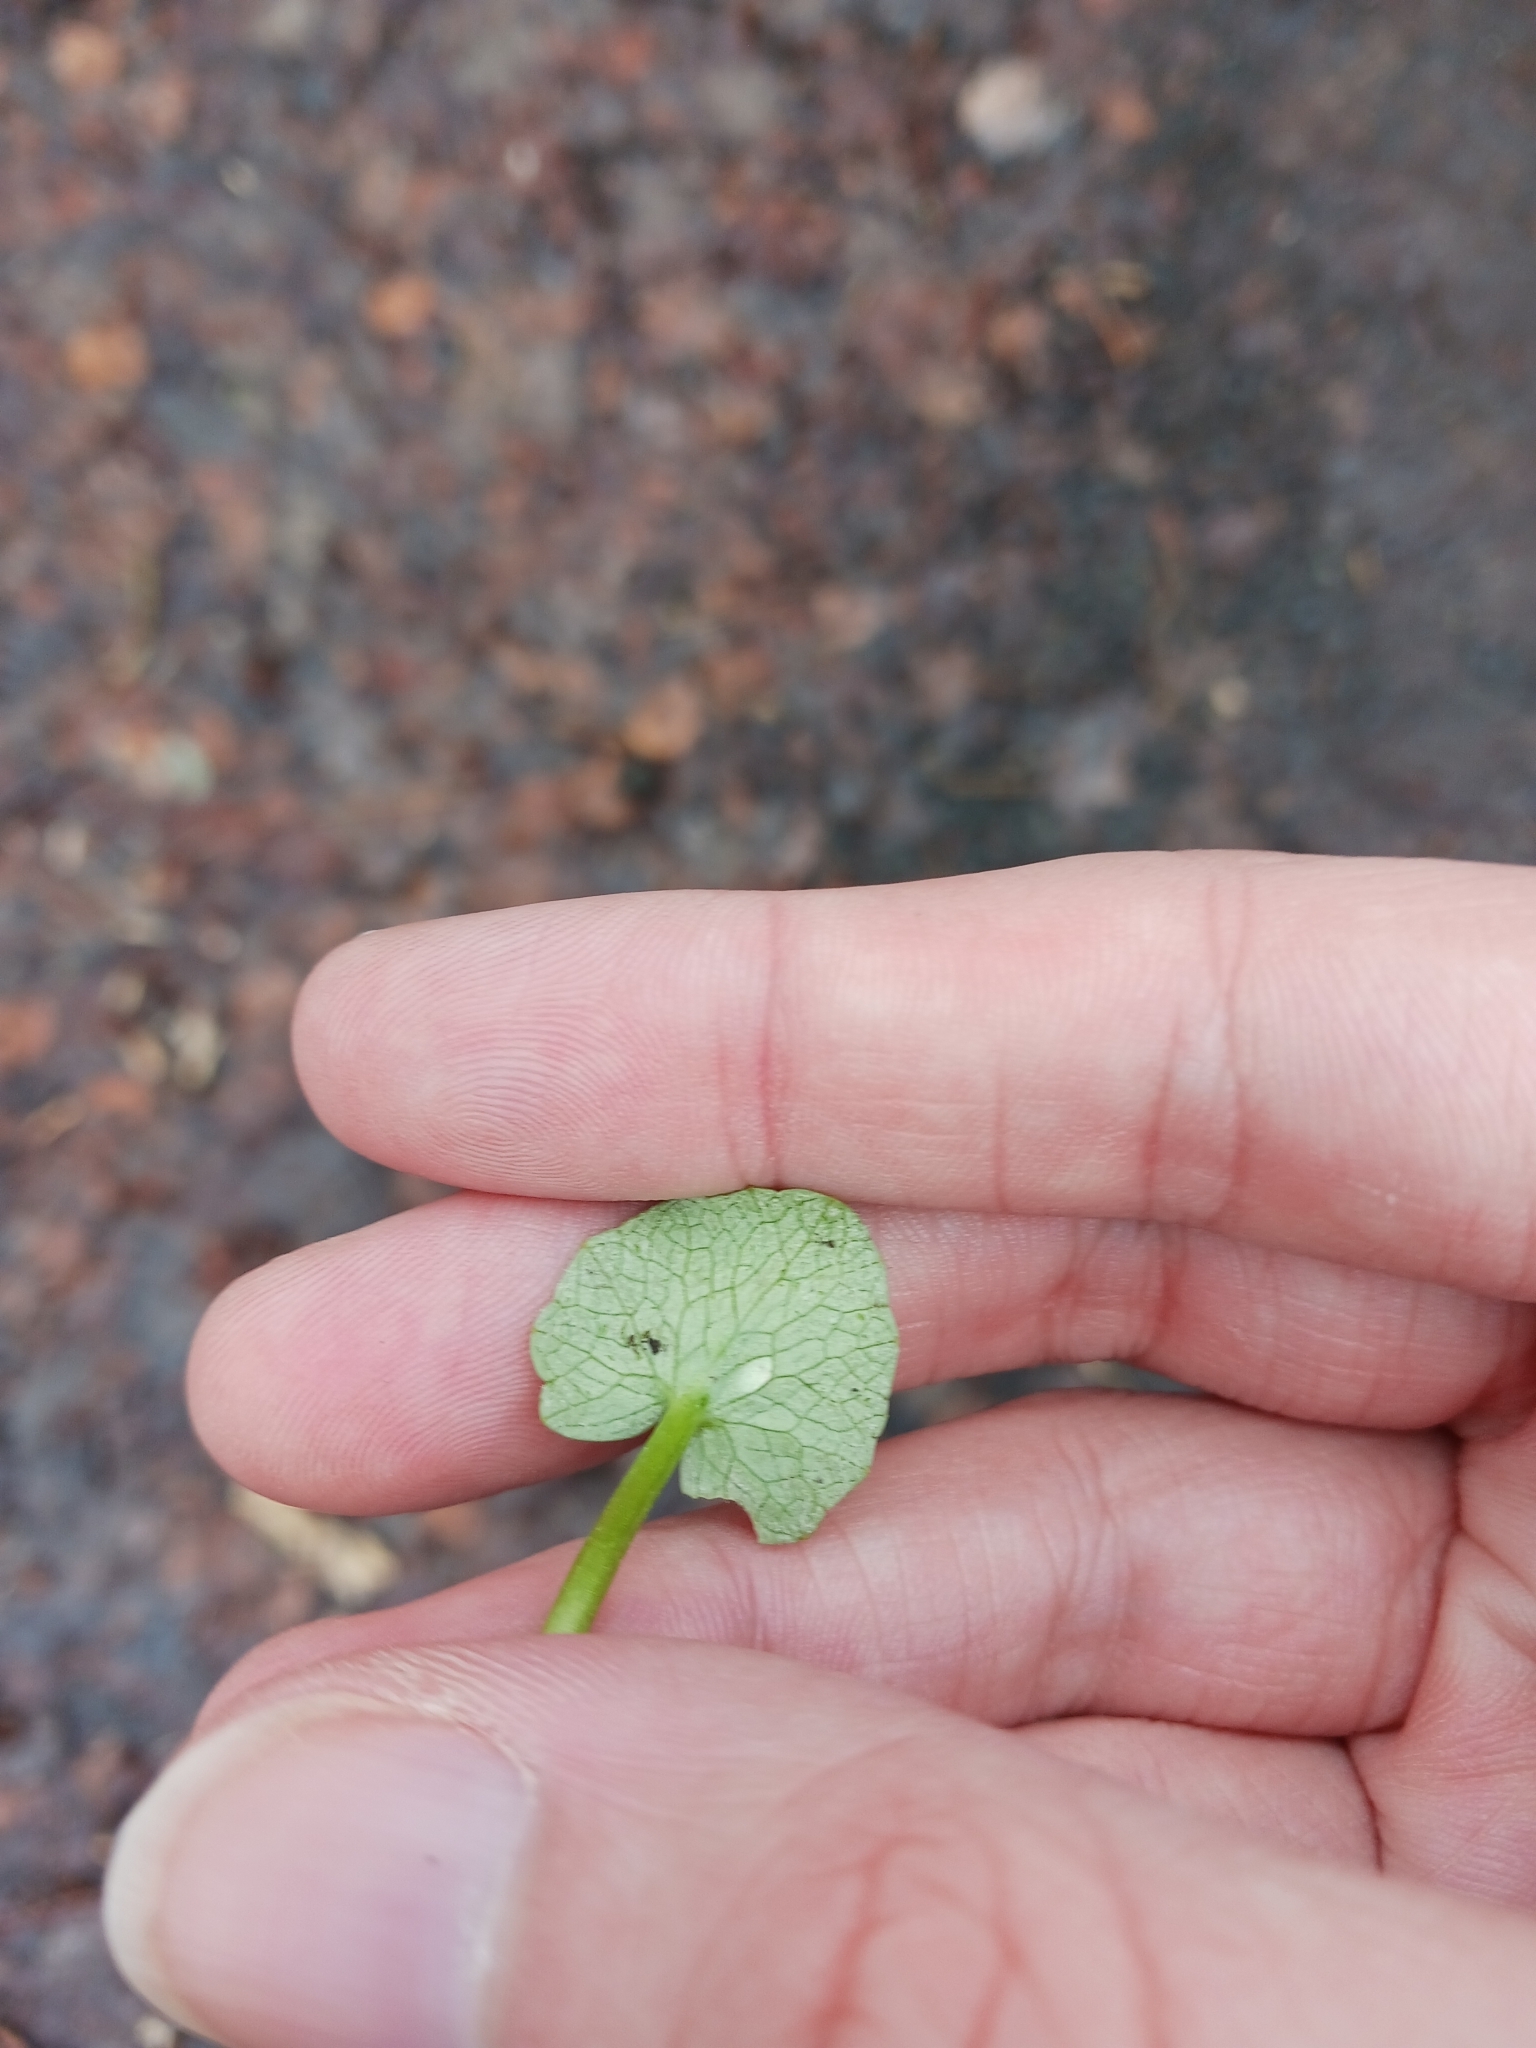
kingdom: Fungi
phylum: Basidiomycota
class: Exobasidiomycetes
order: Entylomatales
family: Entylomataceae
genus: Entyloma
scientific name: Entyloma ficariae
